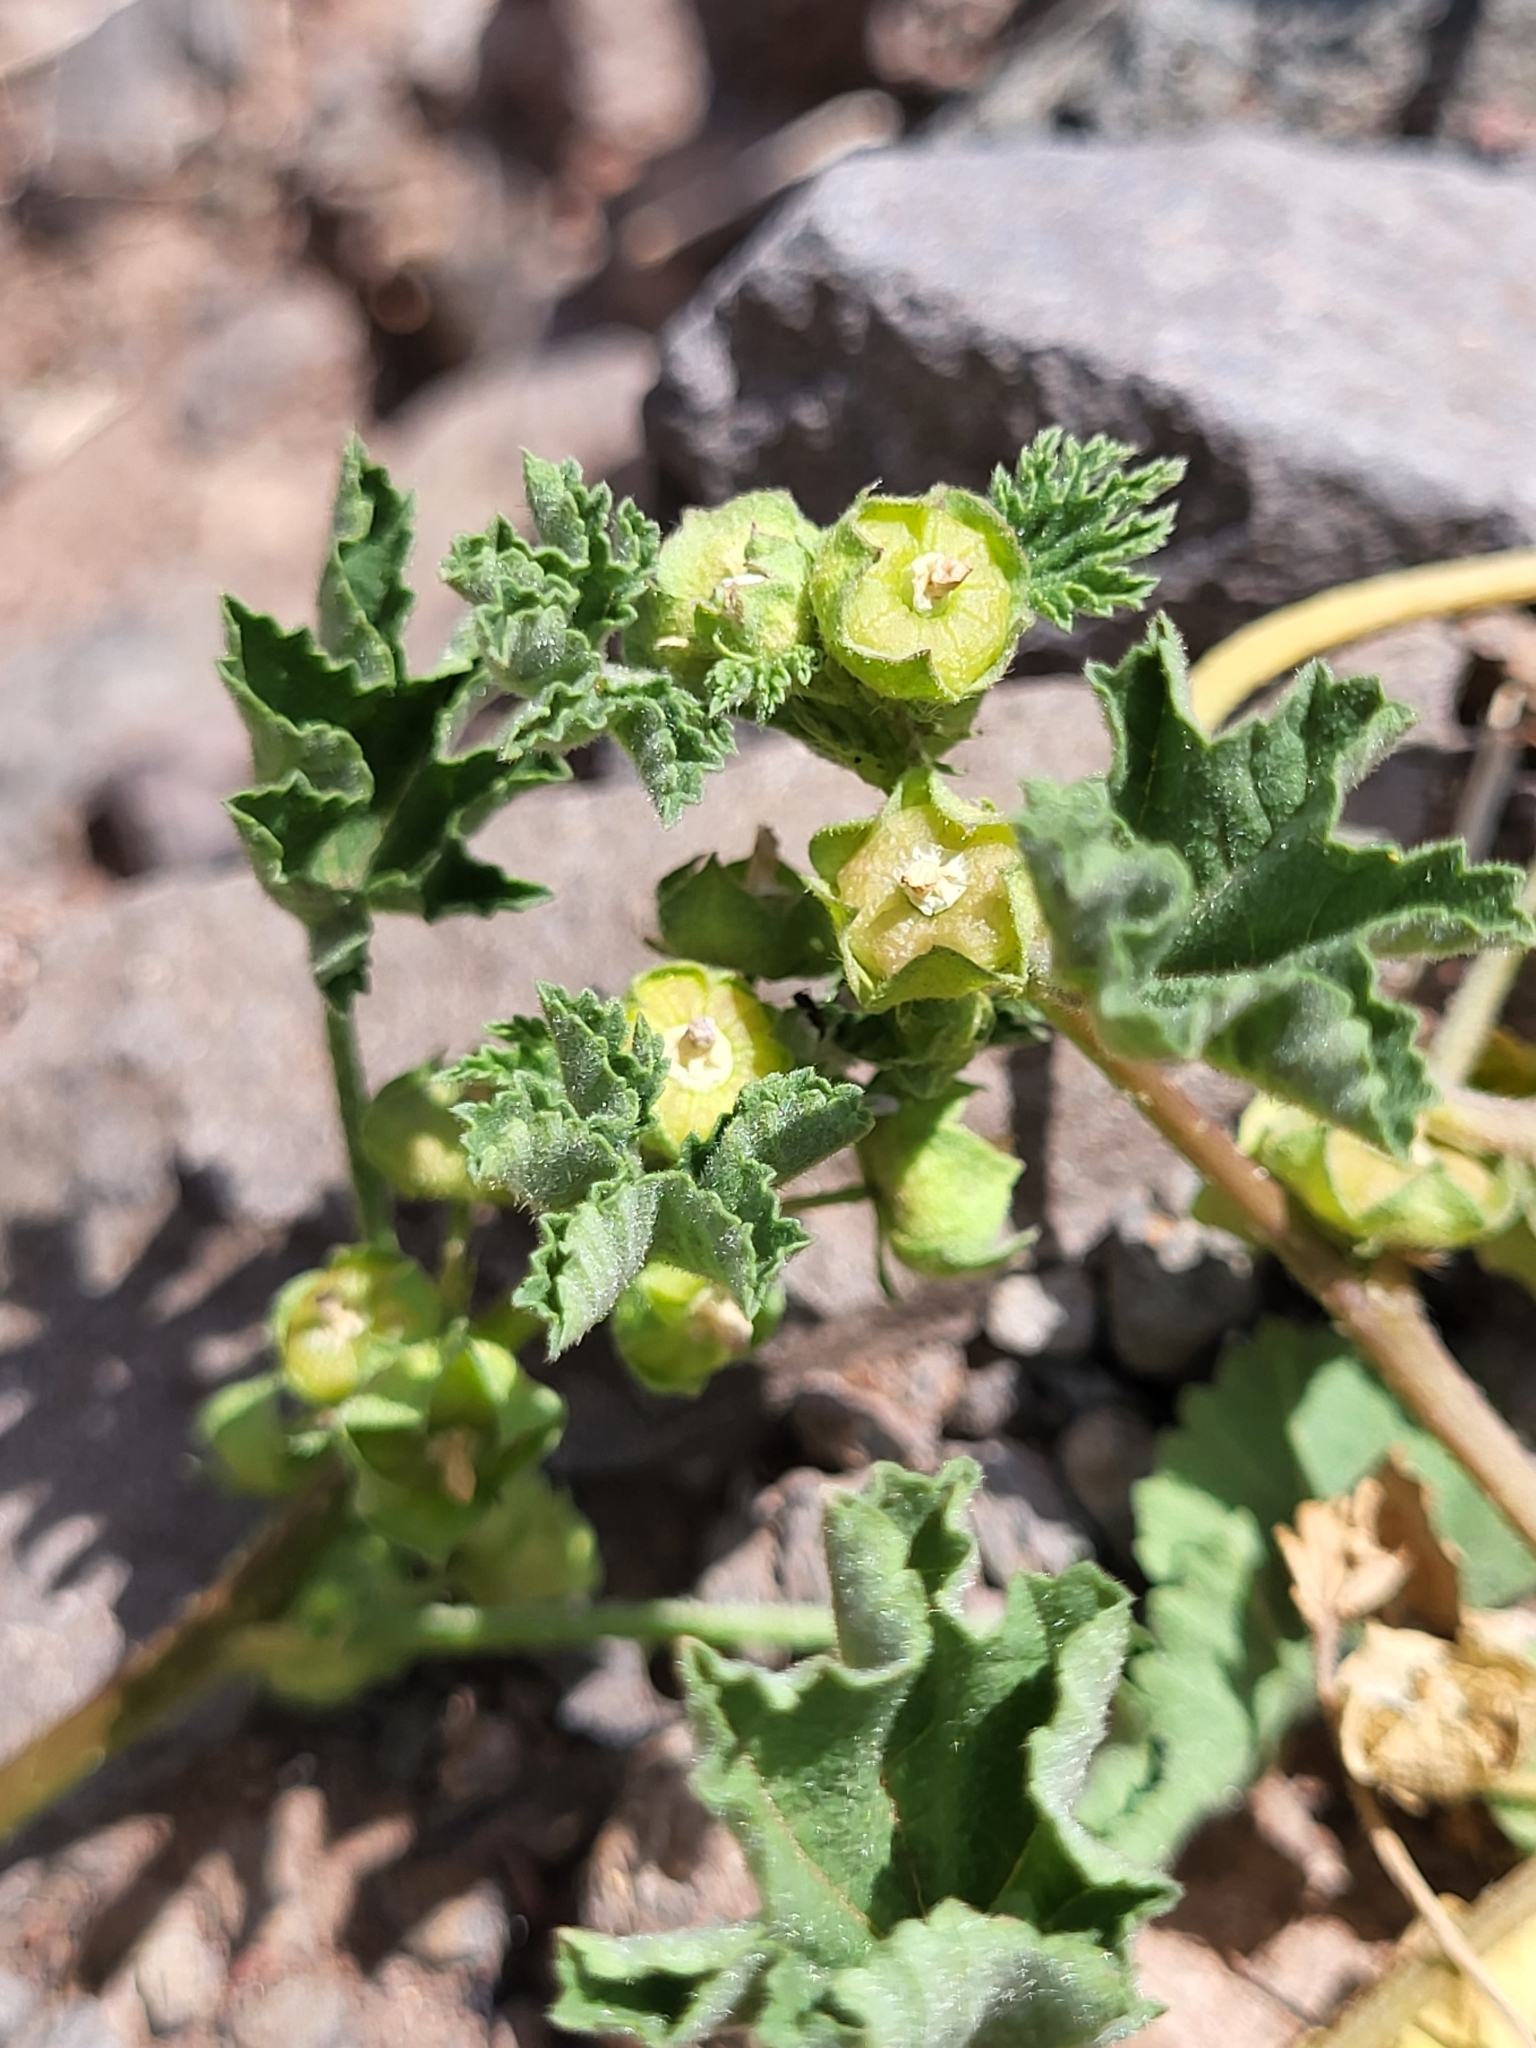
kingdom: Plantae
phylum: Tracheophyta
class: Magnoliopsida
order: Malvales
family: Malvaceae
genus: Malva
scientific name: Malva parviflora
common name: Least mallow
